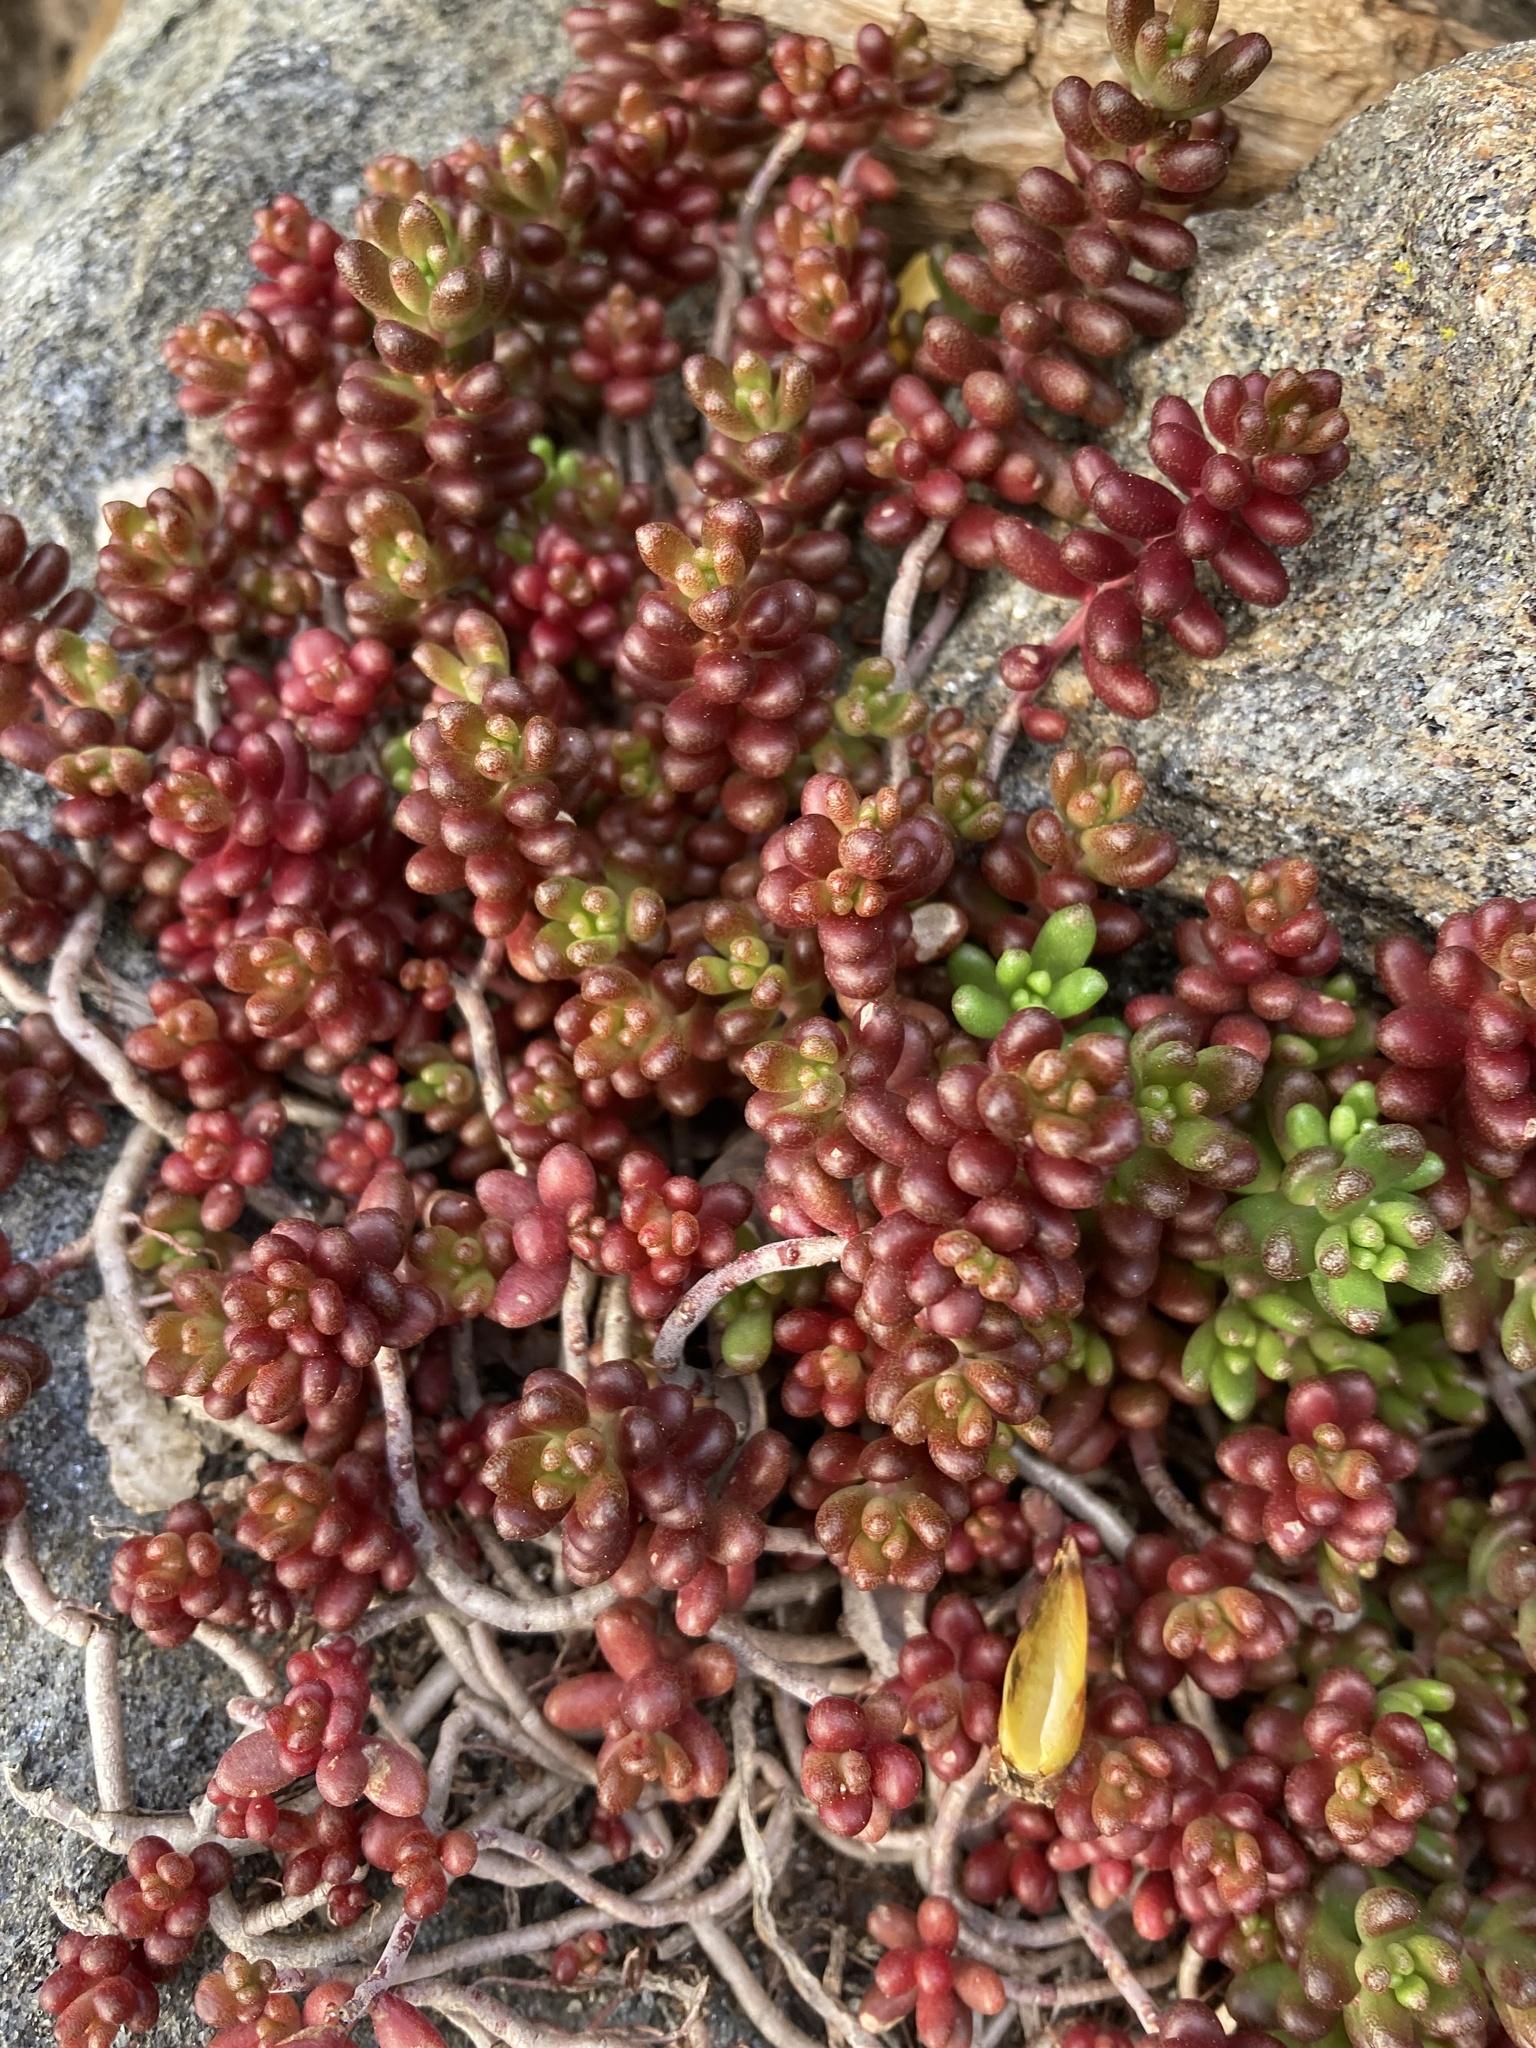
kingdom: Plantae
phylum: Tracheophyta
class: Magnoliopsida
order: Saxifragales
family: Crassulaceae
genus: Sedum
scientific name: Sedum album
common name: White stonecrop
